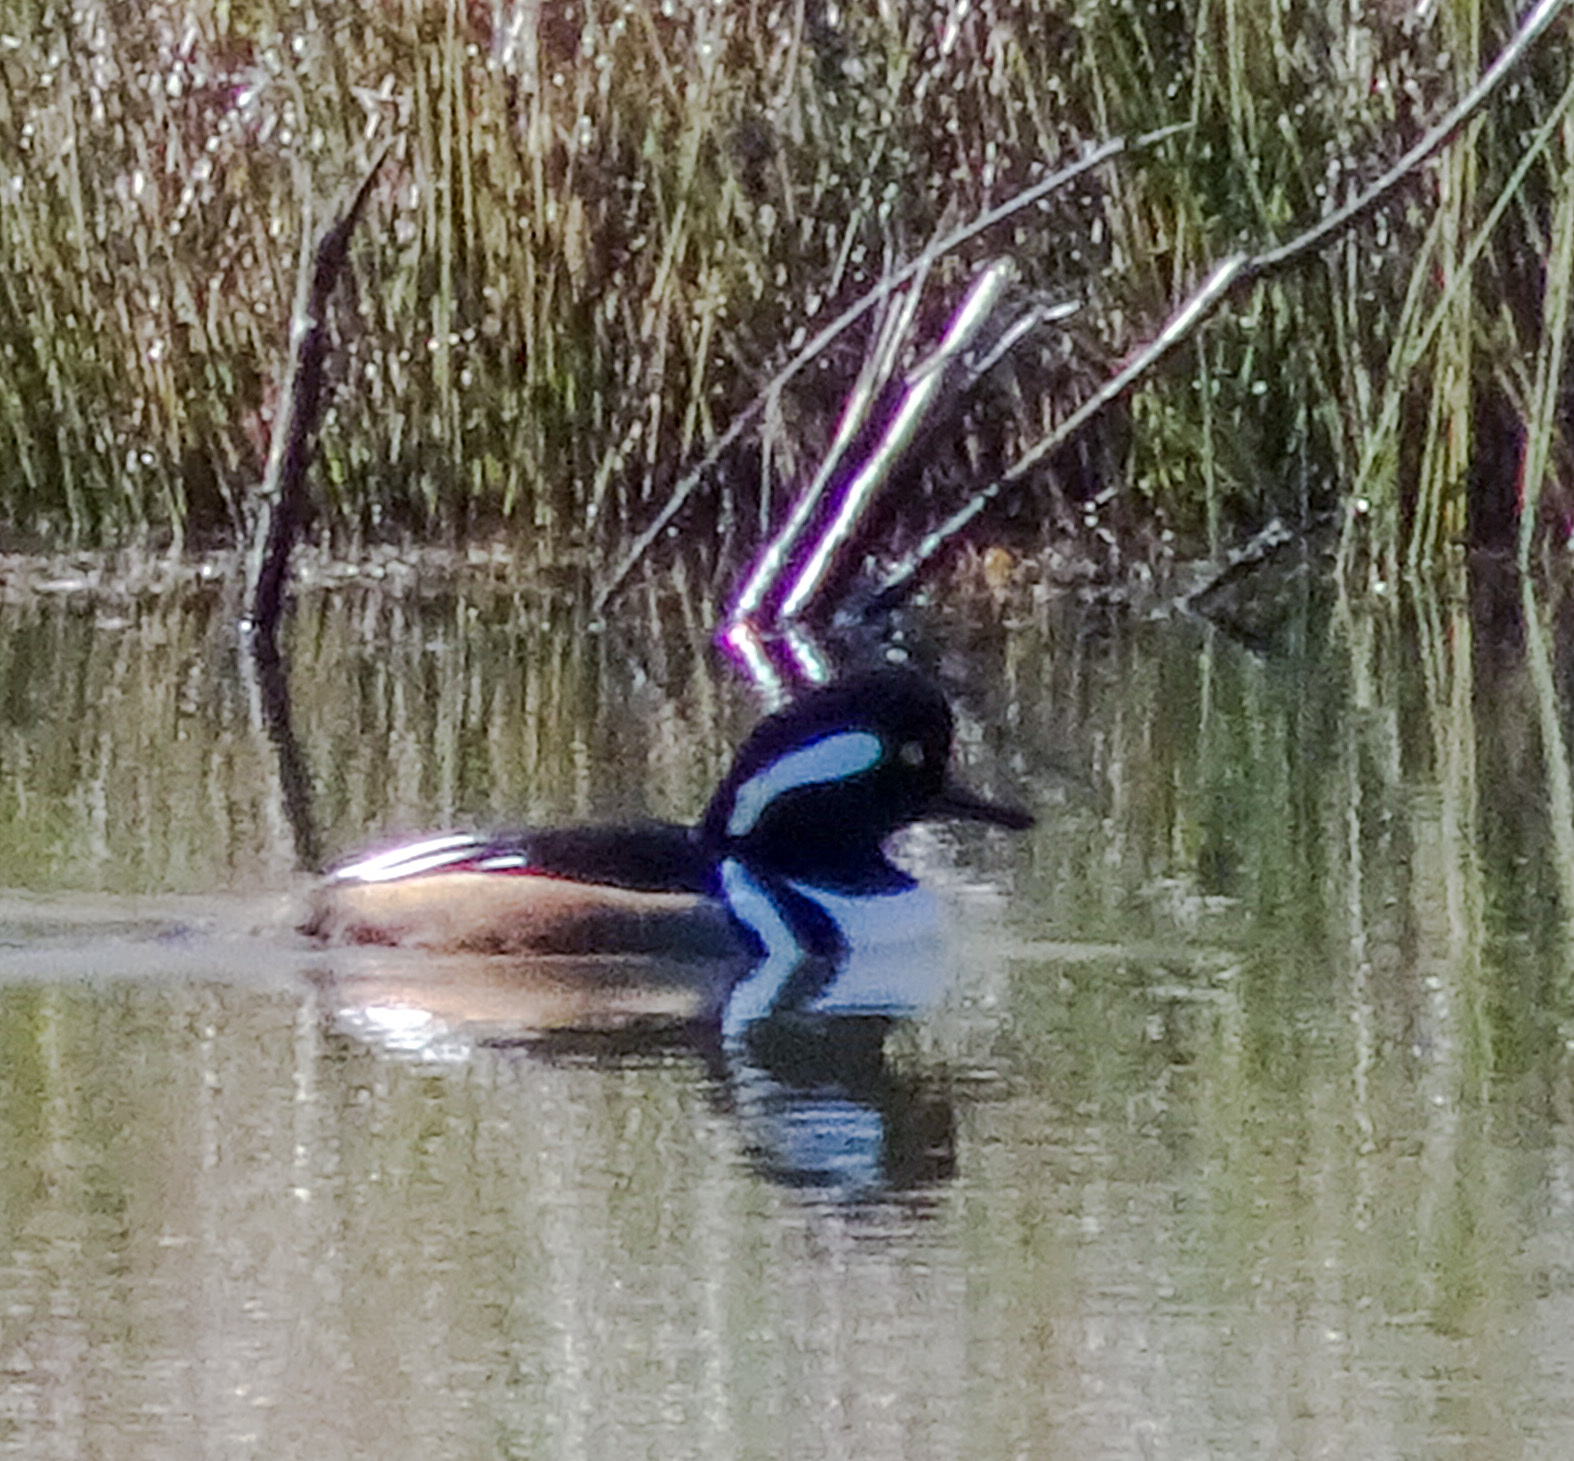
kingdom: Animalia
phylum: Chordata
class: Aves
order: Anseriformes
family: Anatidae
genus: Lophodytes
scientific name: Lophodytes cucullatus
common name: Hooded merganser
